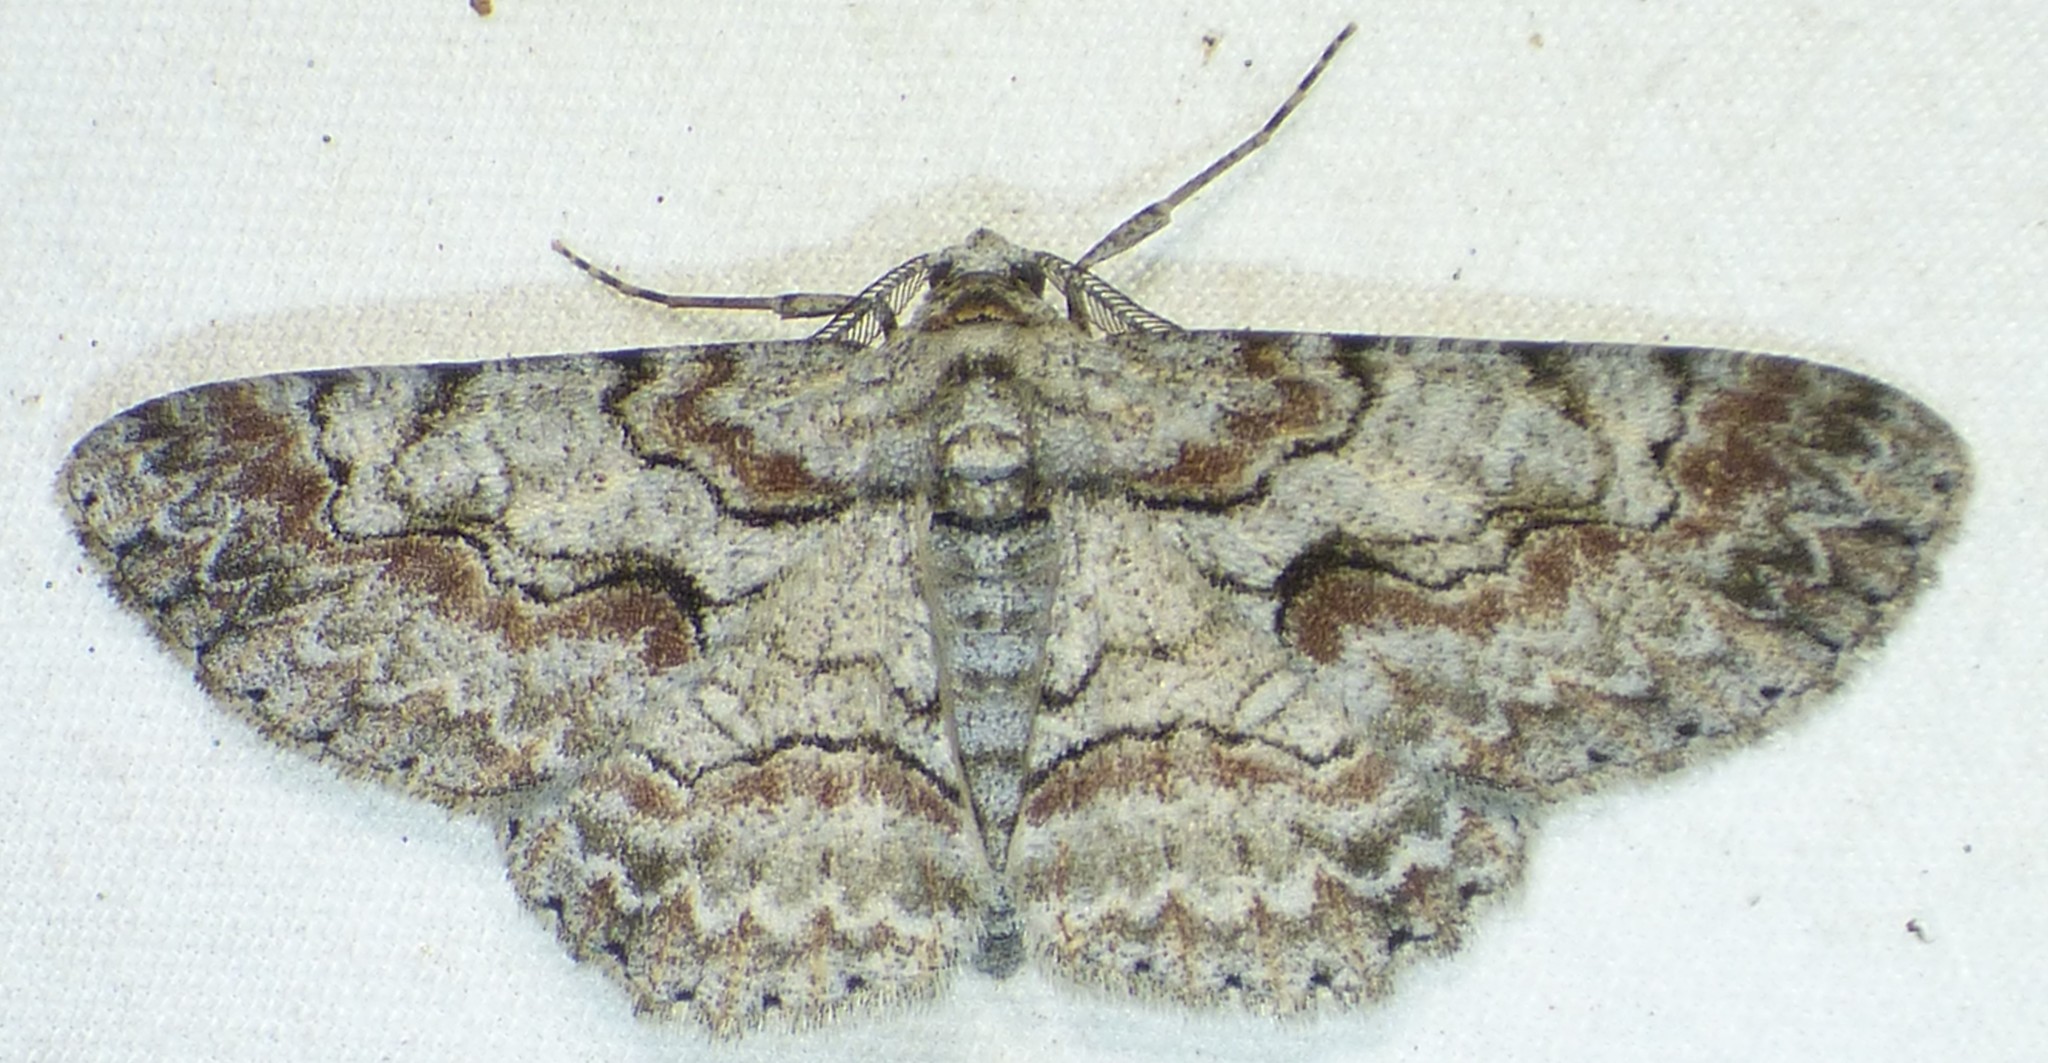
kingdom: Animalia
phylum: Arthropoda
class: Insecta
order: Lepidoptera
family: Geometridae
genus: Iridopsis
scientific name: Iridopsis defectaria
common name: Brown-shaded gray
